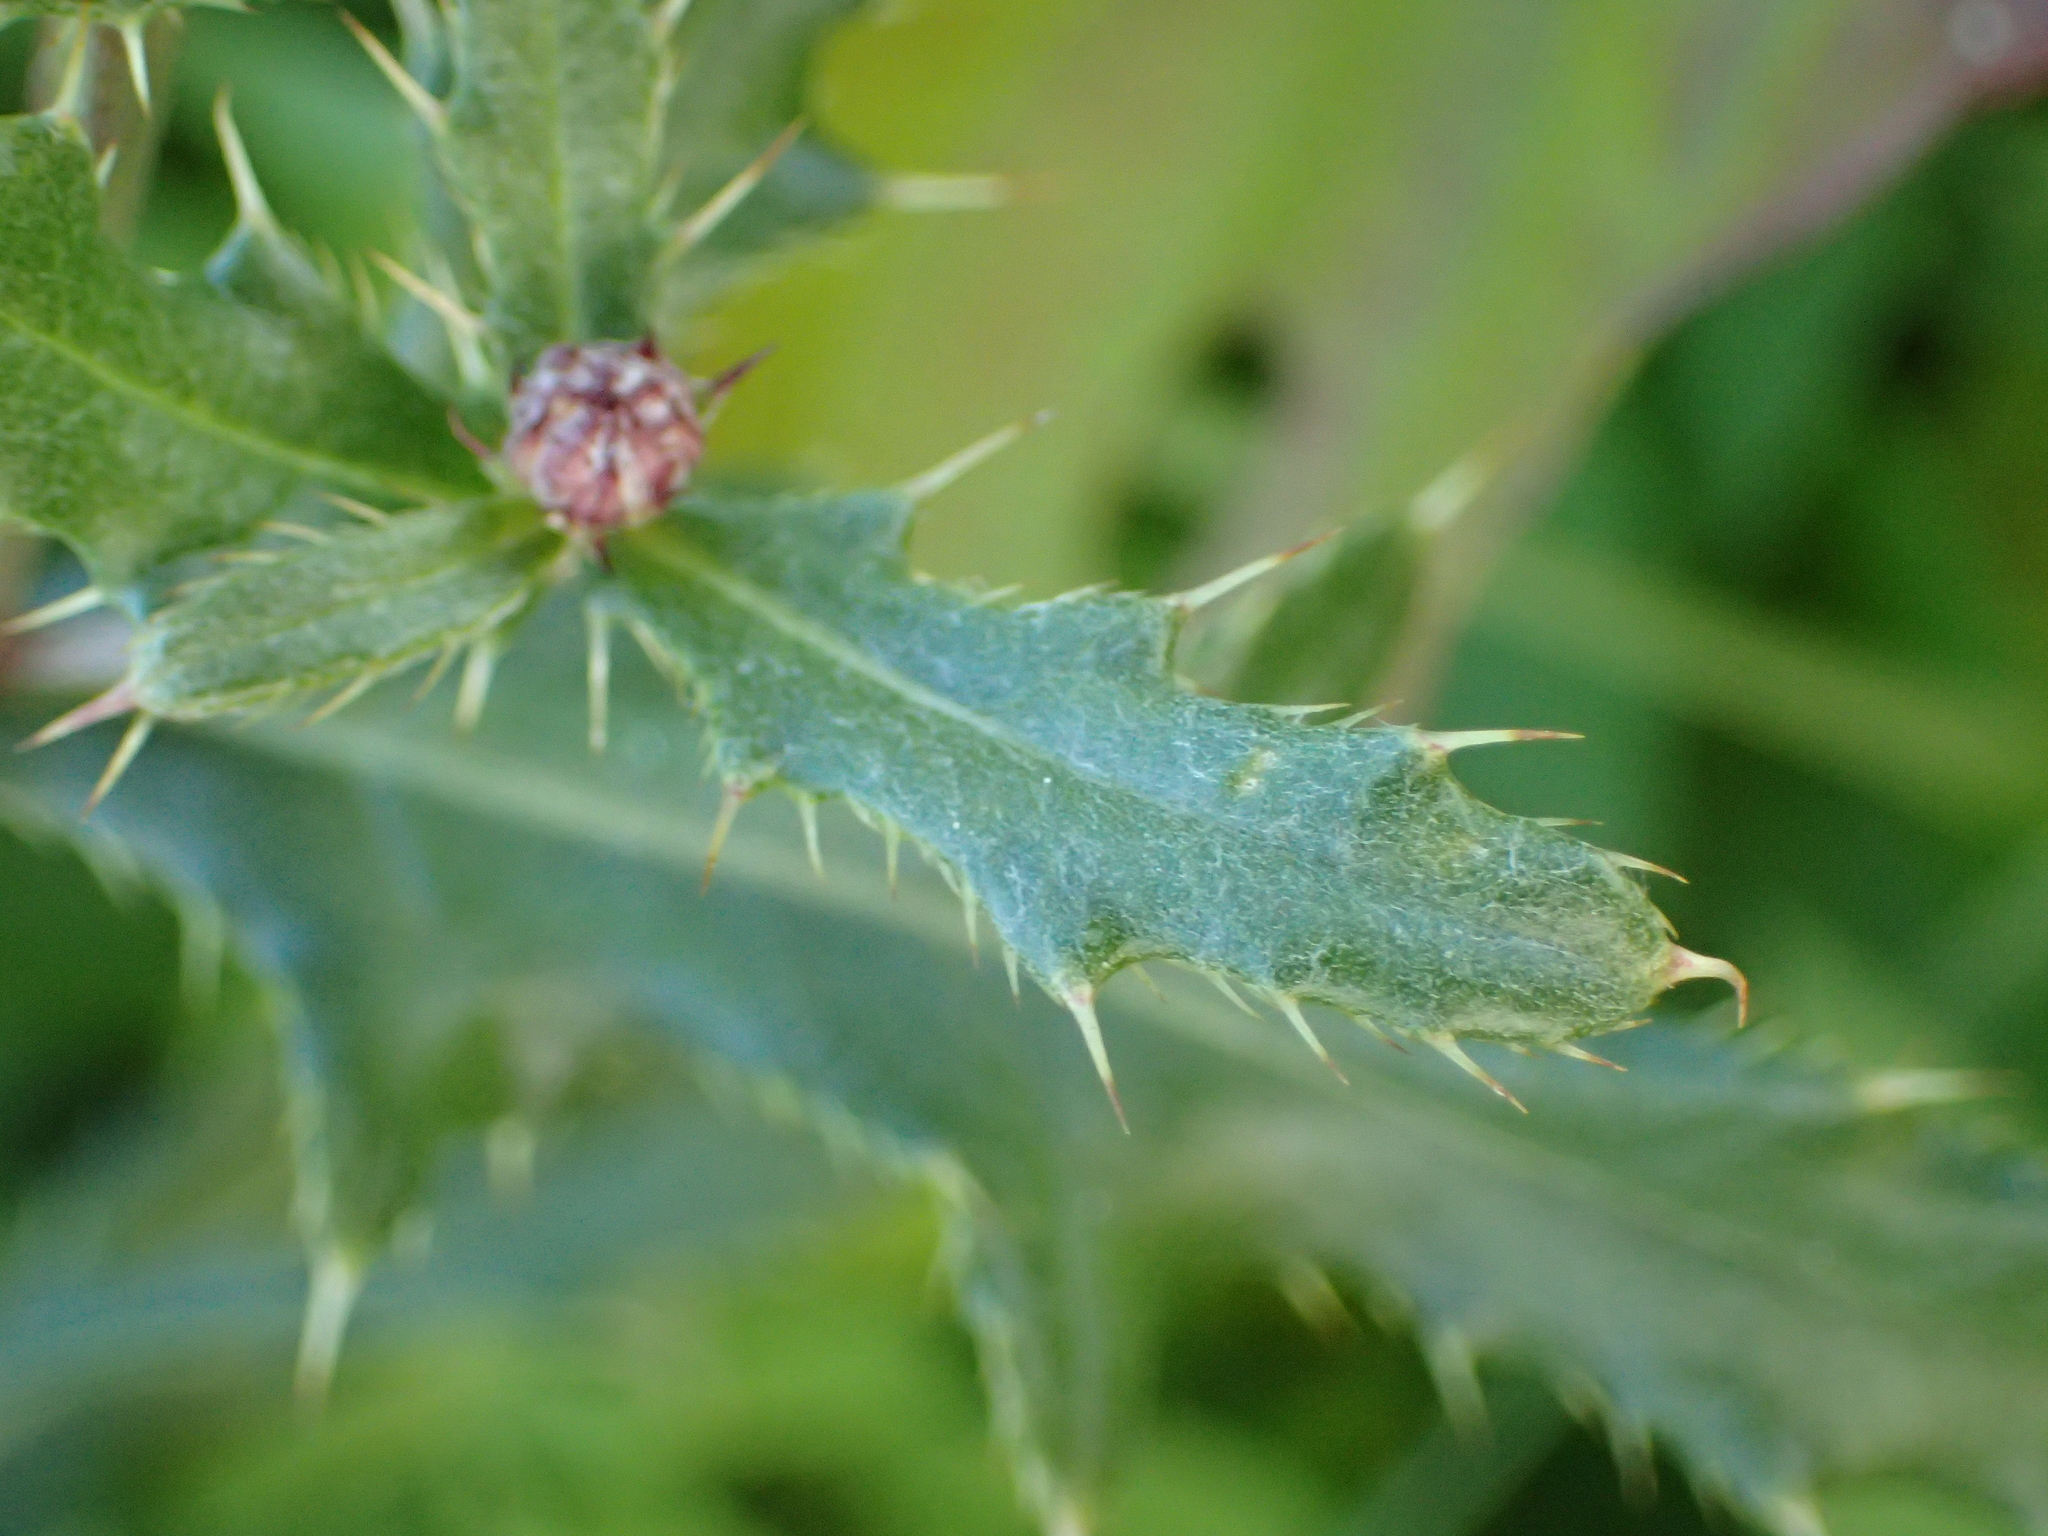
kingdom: Plantae
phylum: Tracheophyta
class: Magnoliopsida
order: Asterales
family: Asteraceae
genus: Cirsium
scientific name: Cirsium arvense
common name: Creeping thistle
